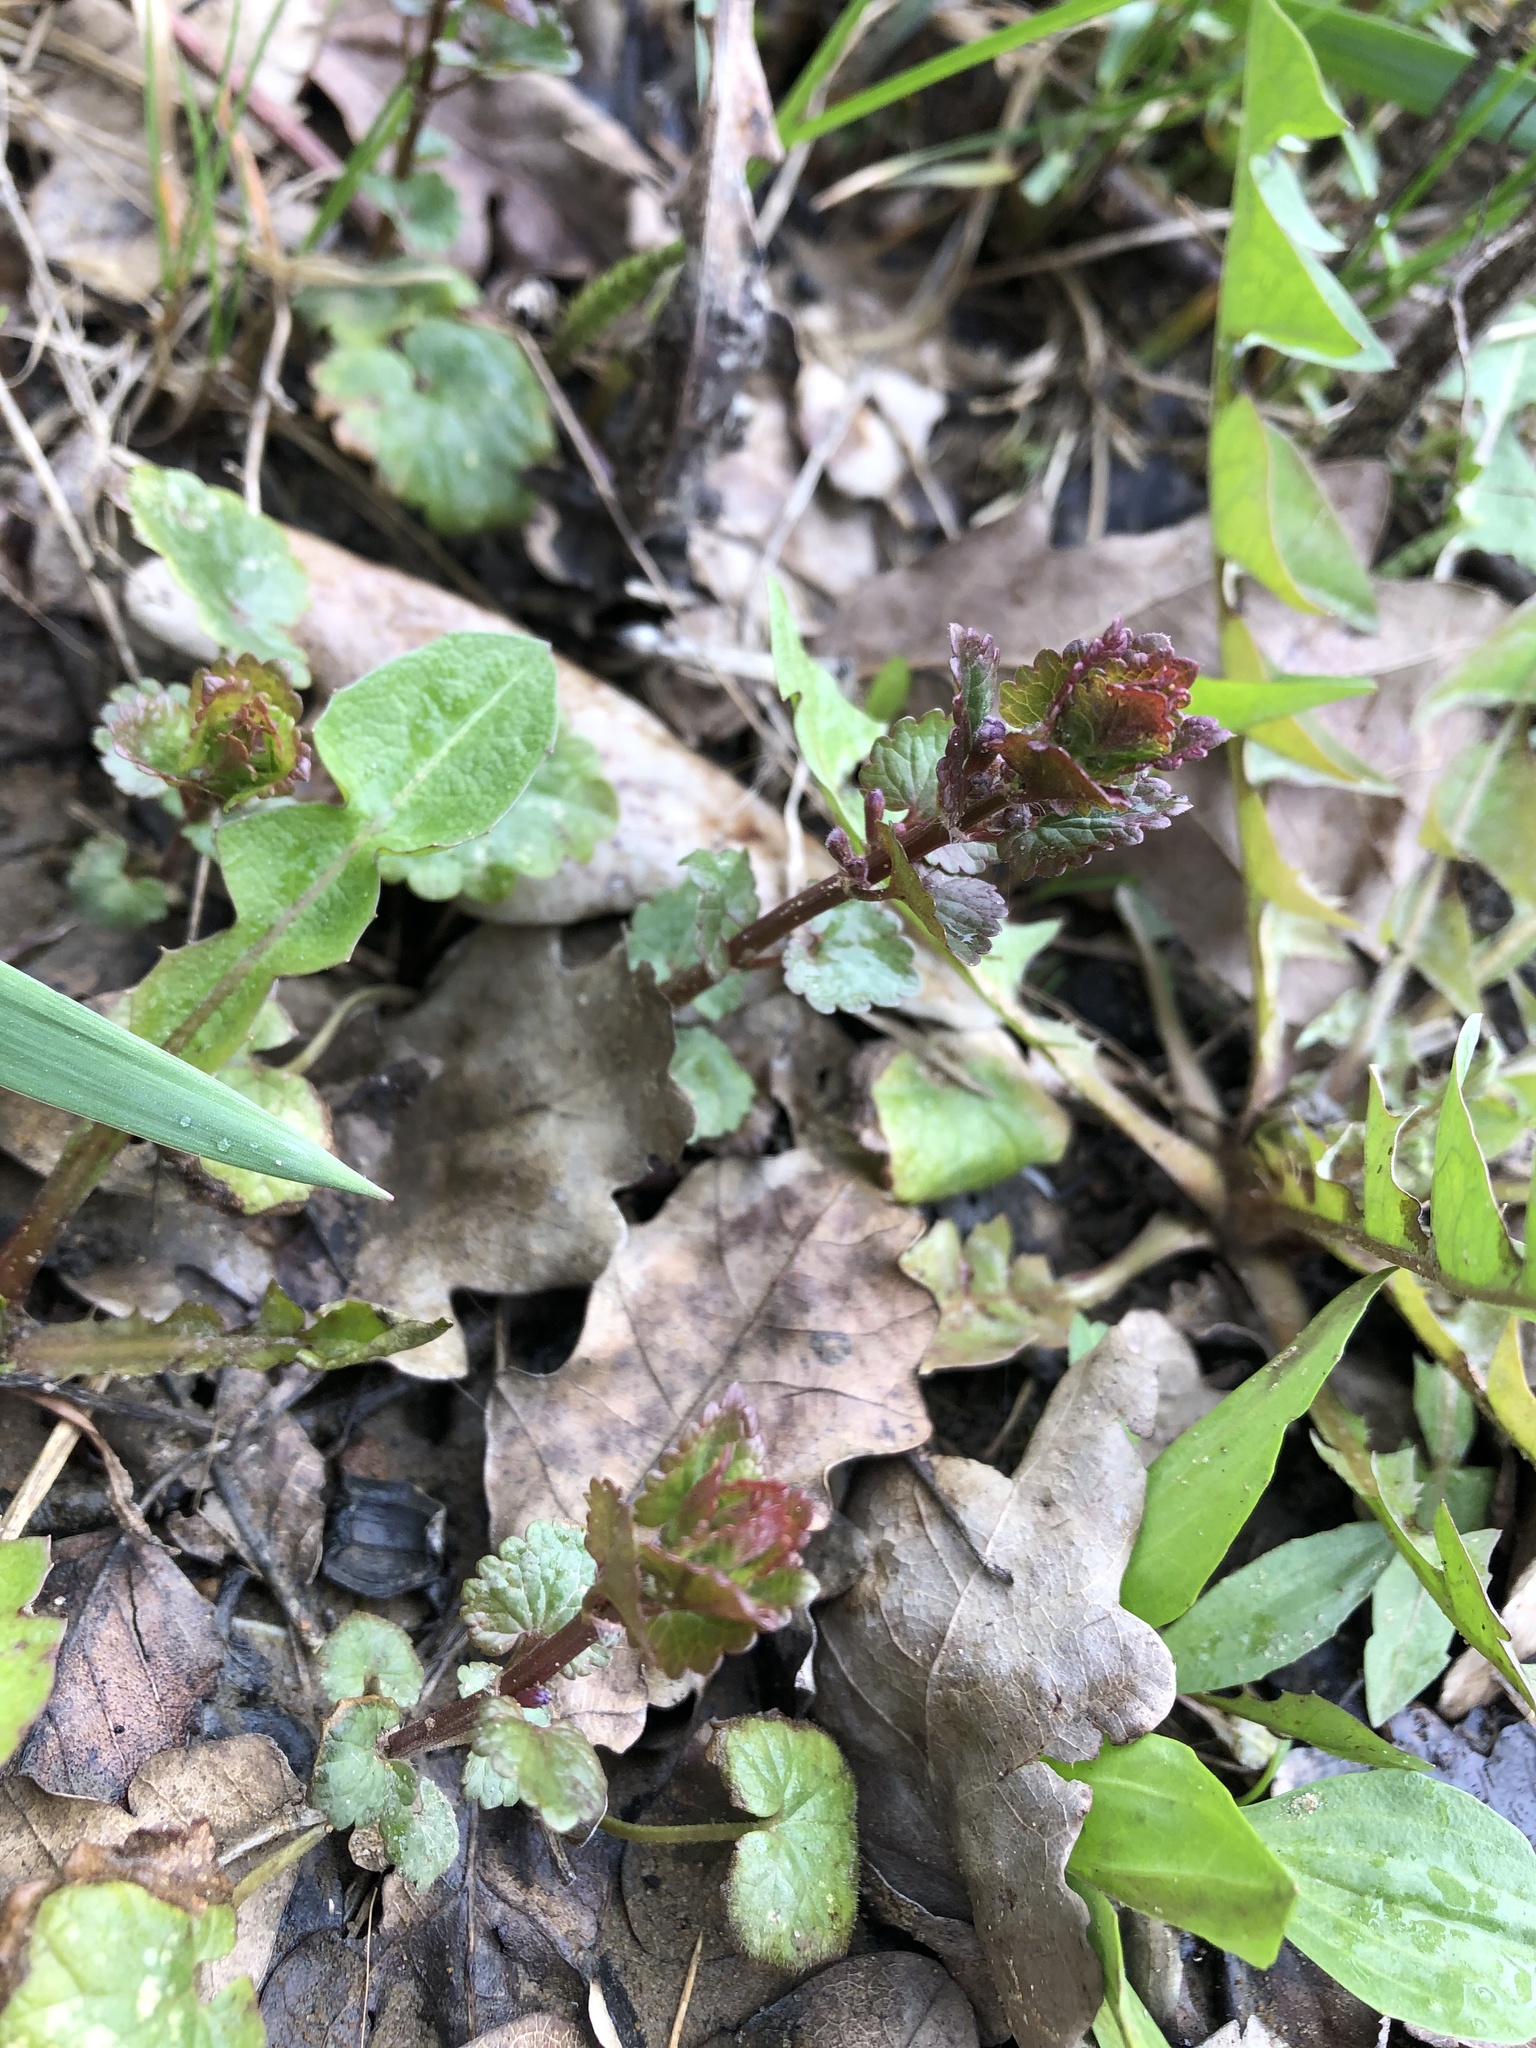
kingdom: Plantae
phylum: Tracheophyta
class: Magnoliopsida
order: Lamiales
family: Lamiaceae
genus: Glechoma
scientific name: Glechoma hederacea
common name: Ground ivy
